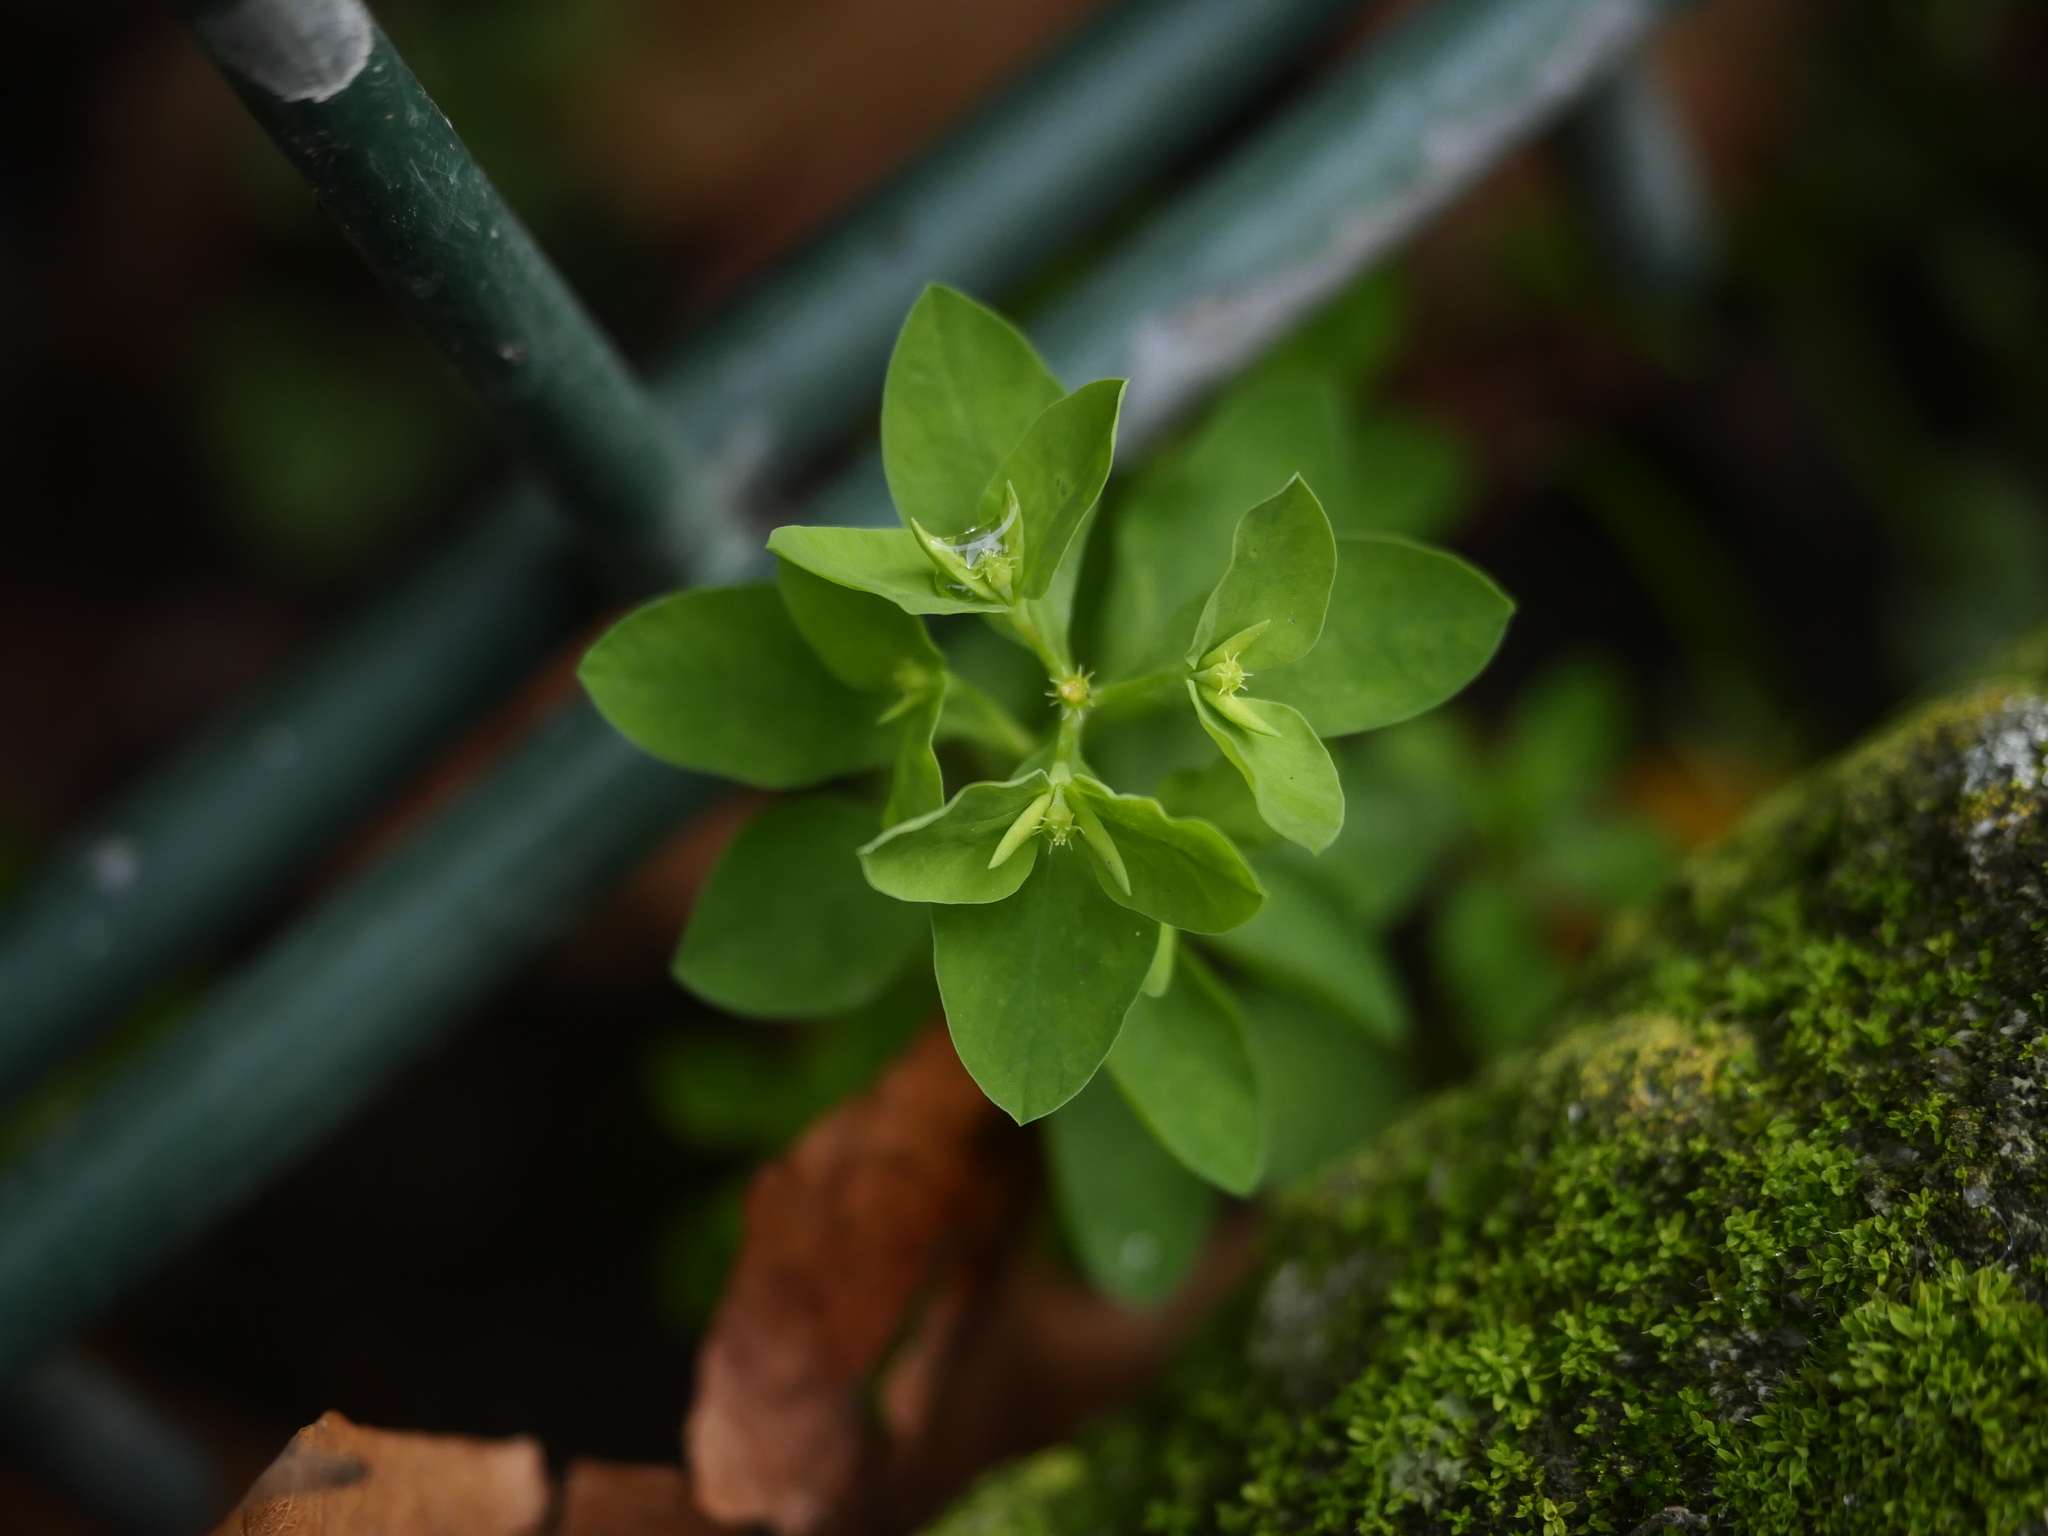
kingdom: Plantae
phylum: Tracheophyta
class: Magnoliopsida
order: Malpighiales
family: Euphorbiaceae
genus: Euphorbia
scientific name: Euphorbia peplus
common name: Petty spurge
